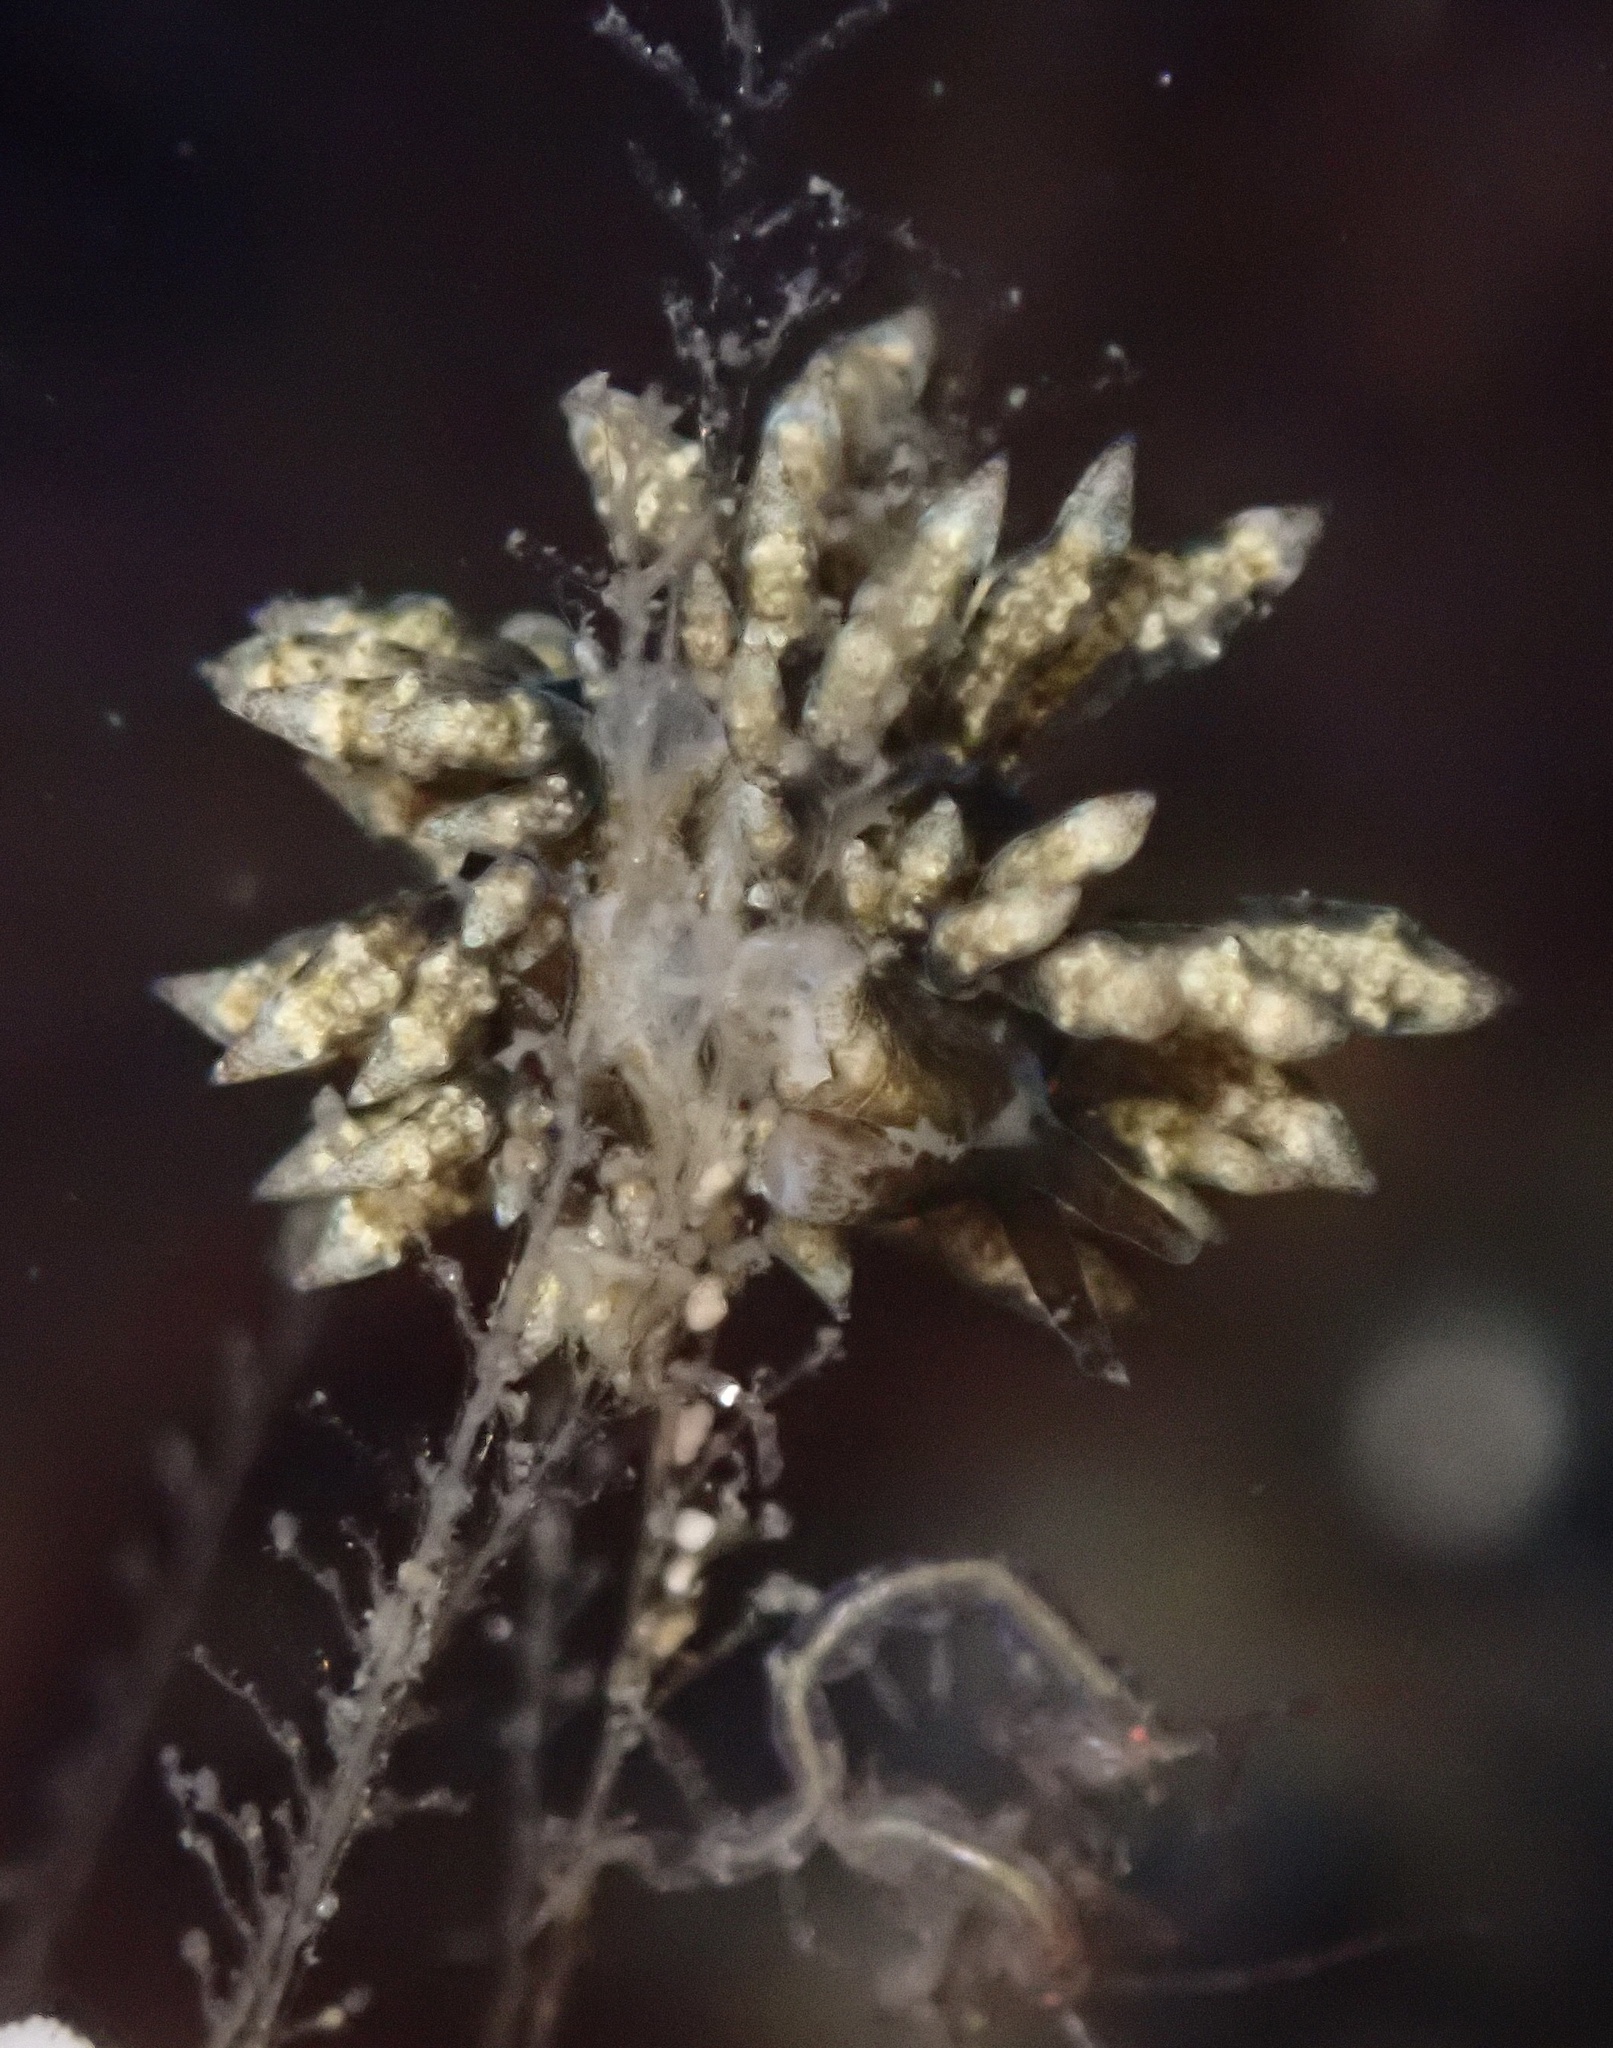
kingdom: Animalia
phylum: Mollusca
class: Gastropoda
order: Nudibranchia
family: Eubranchidae
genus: Eubranchus
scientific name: Eubranchus rustyus
